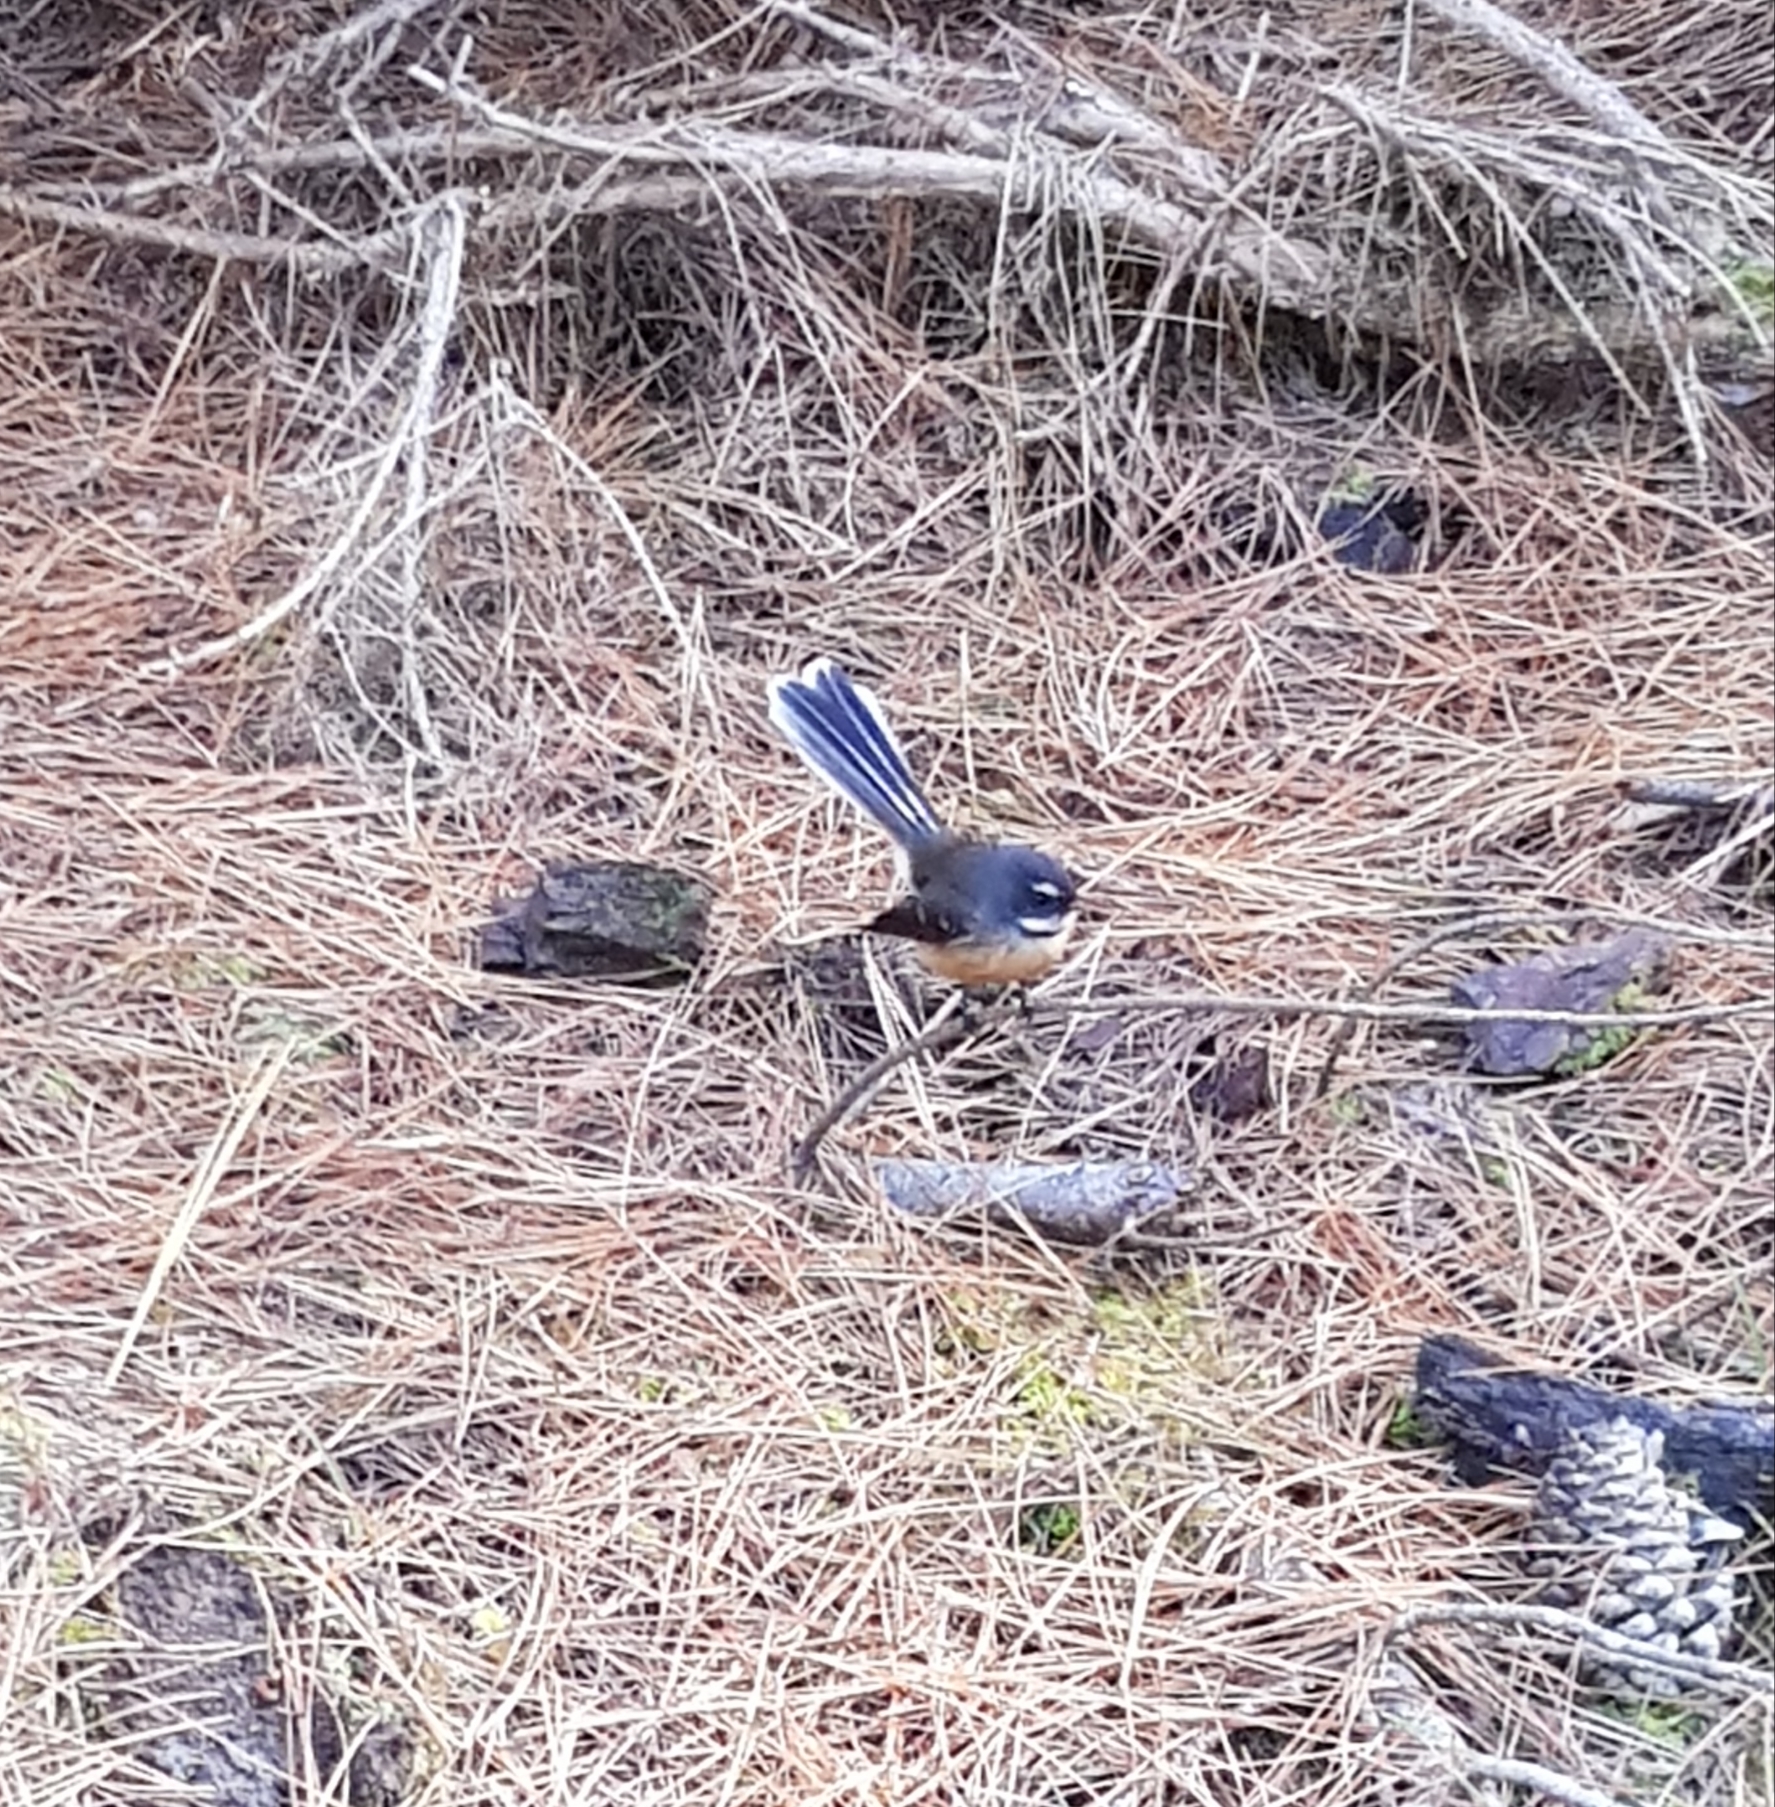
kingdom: Animalia
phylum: Chordata
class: Aves
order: Passeriformes
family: Rhipiduridae
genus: Rhipidura
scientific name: Rhipidura fuliginosa
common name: New zealand fantail
